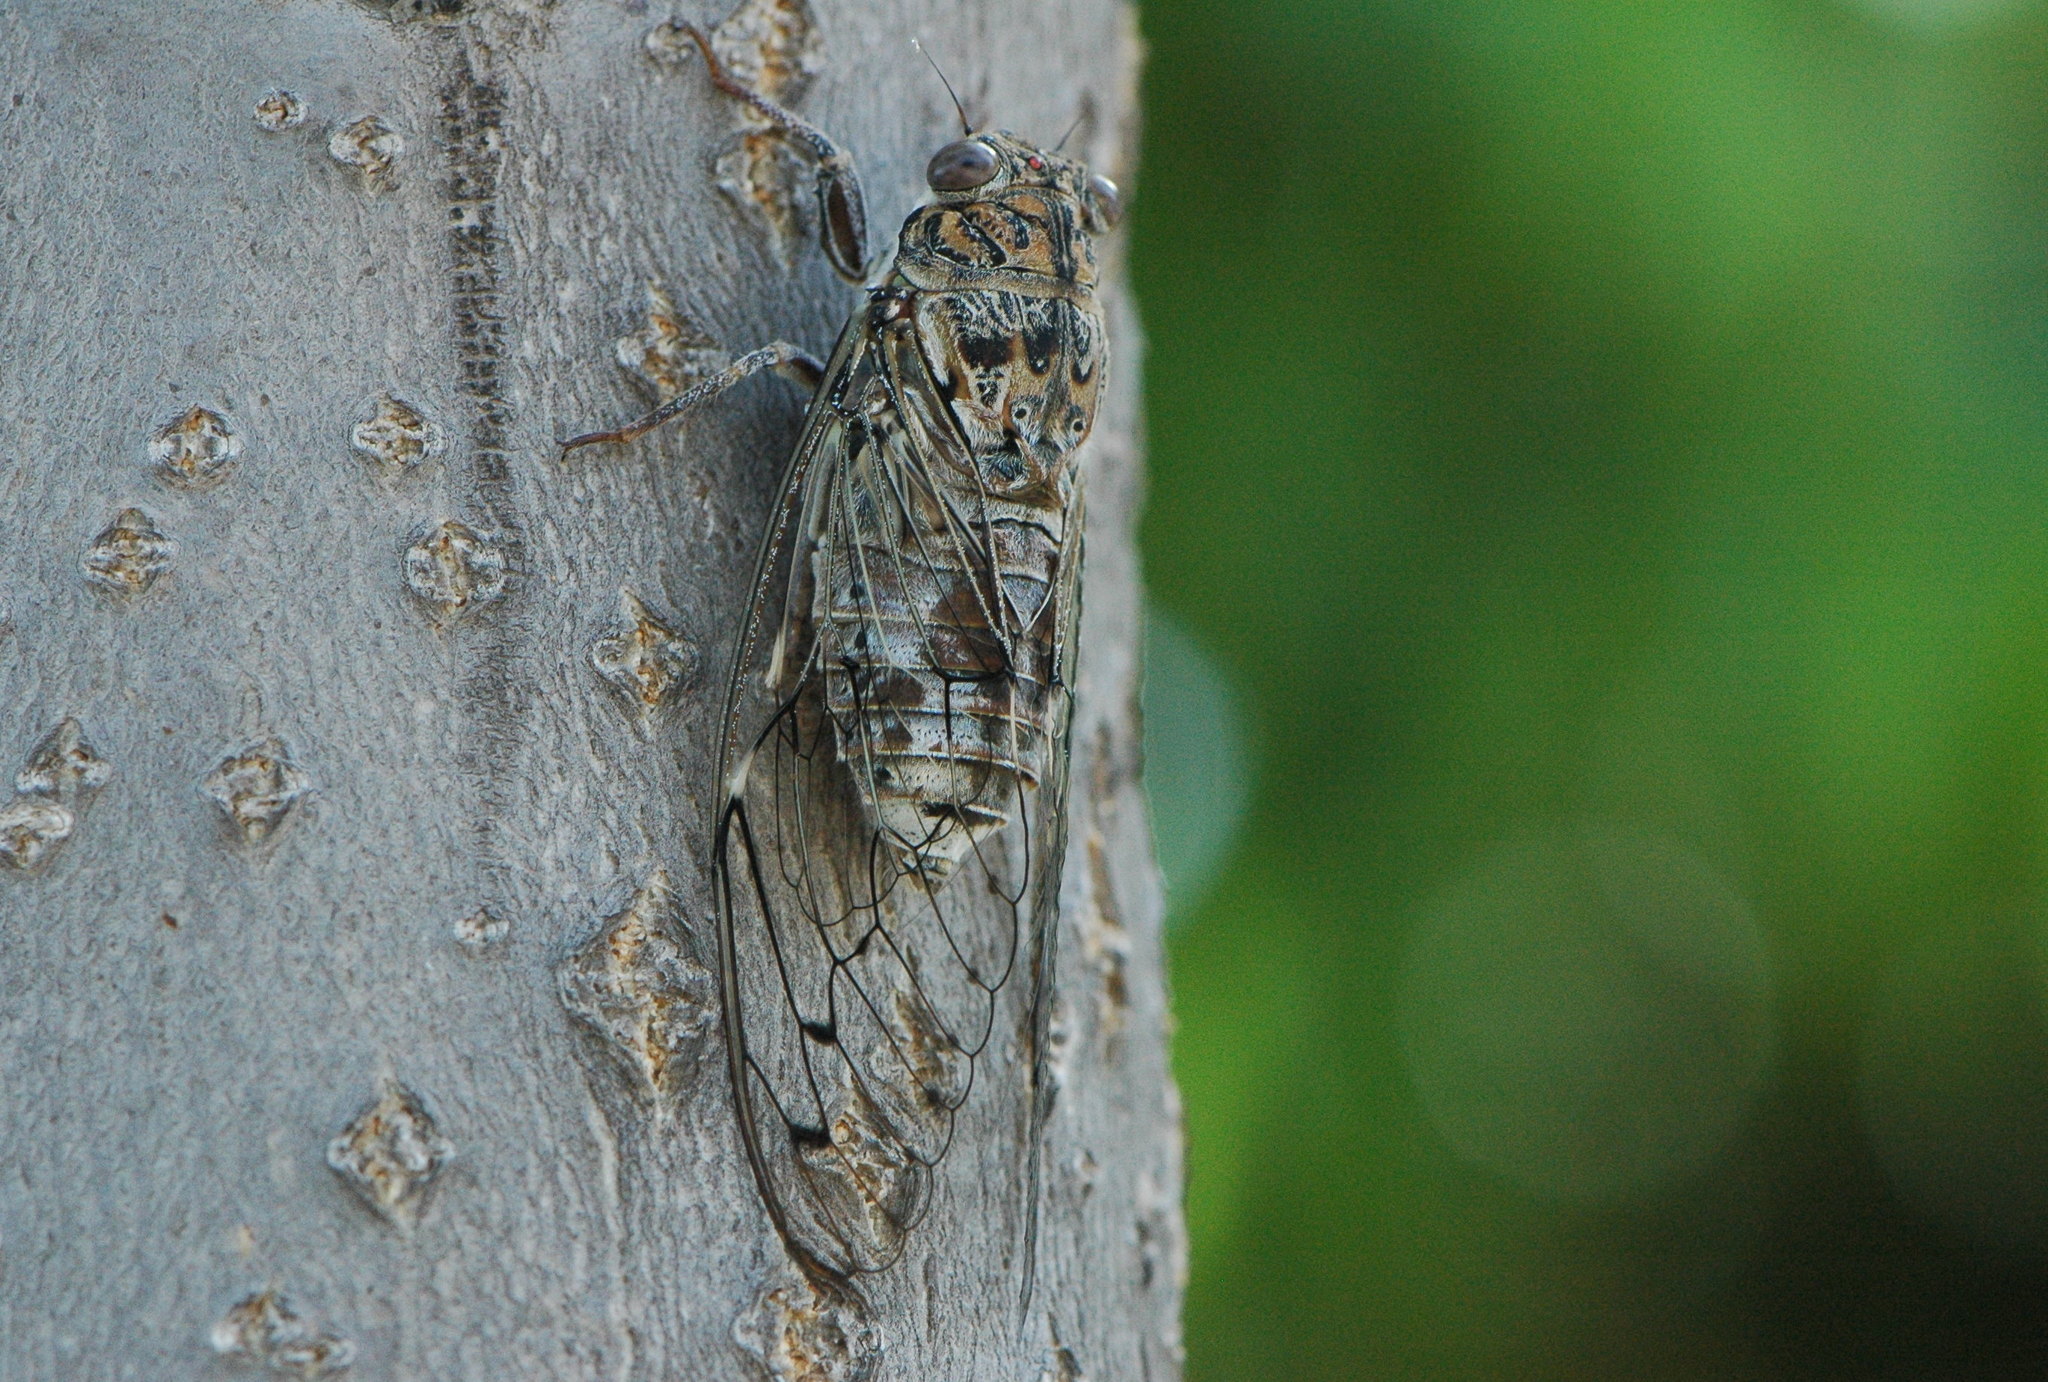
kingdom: Animalia
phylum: Arthropoda
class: Insecta
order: Hemiptera
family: Cicadidae
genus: Cicada
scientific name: Cicada barbara
